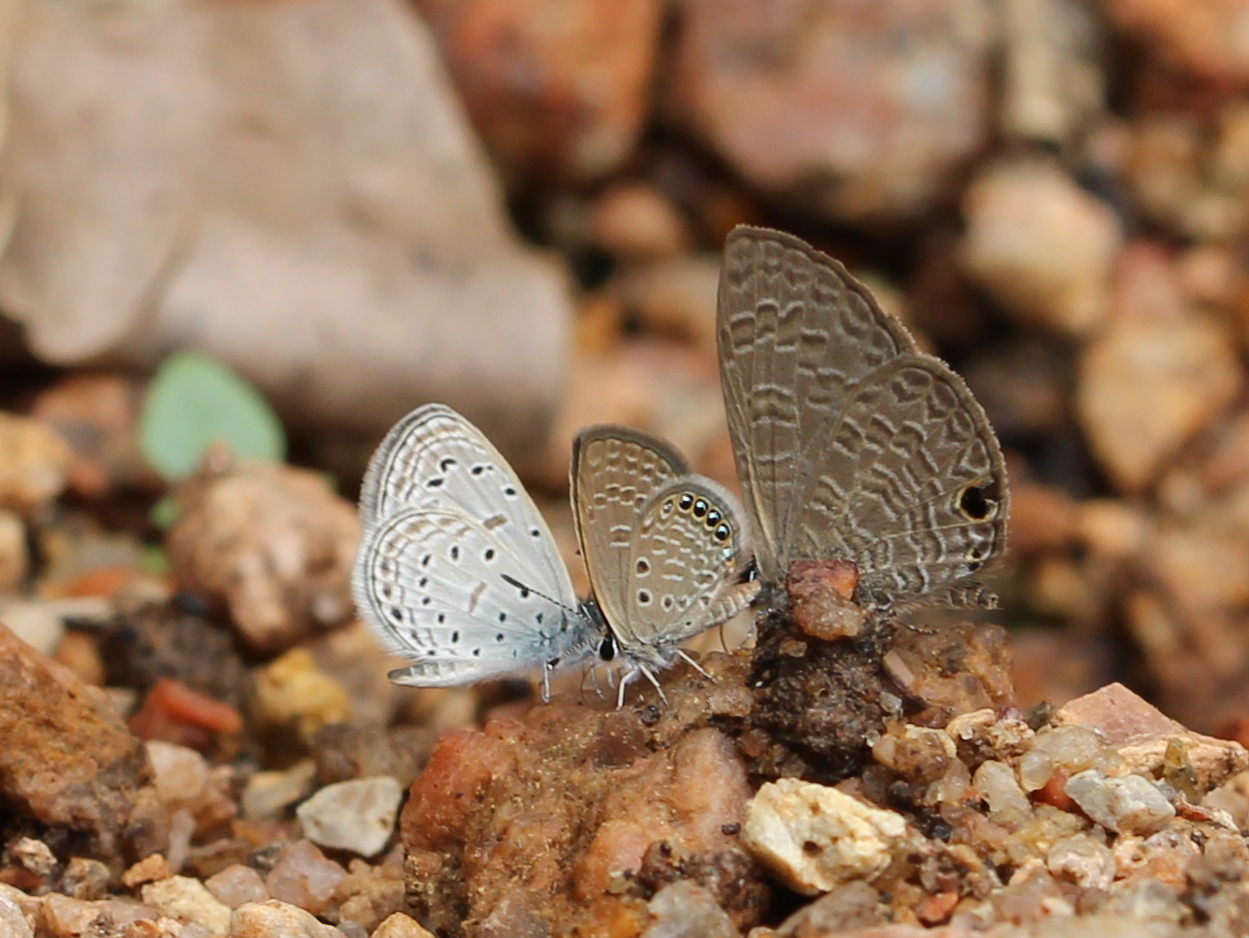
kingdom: Animalia
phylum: Arthropoda
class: Insecta
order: Lepidoptera
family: Lycaenidae
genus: Freyeria
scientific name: Freyeria putli
